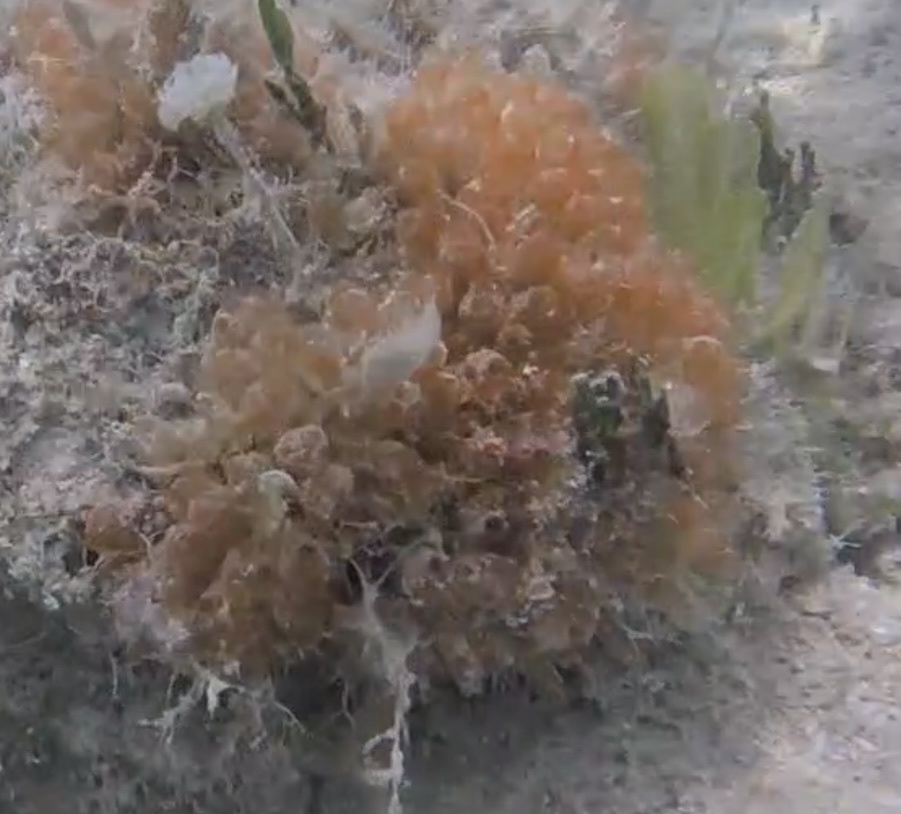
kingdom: Animalia
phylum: Chordata
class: Ascidiacea
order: Phlebobranchia
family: Perophoridae
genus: Ecteinascidia
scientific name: Ecteinascidia turbinata
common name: Mangrove tunicate
